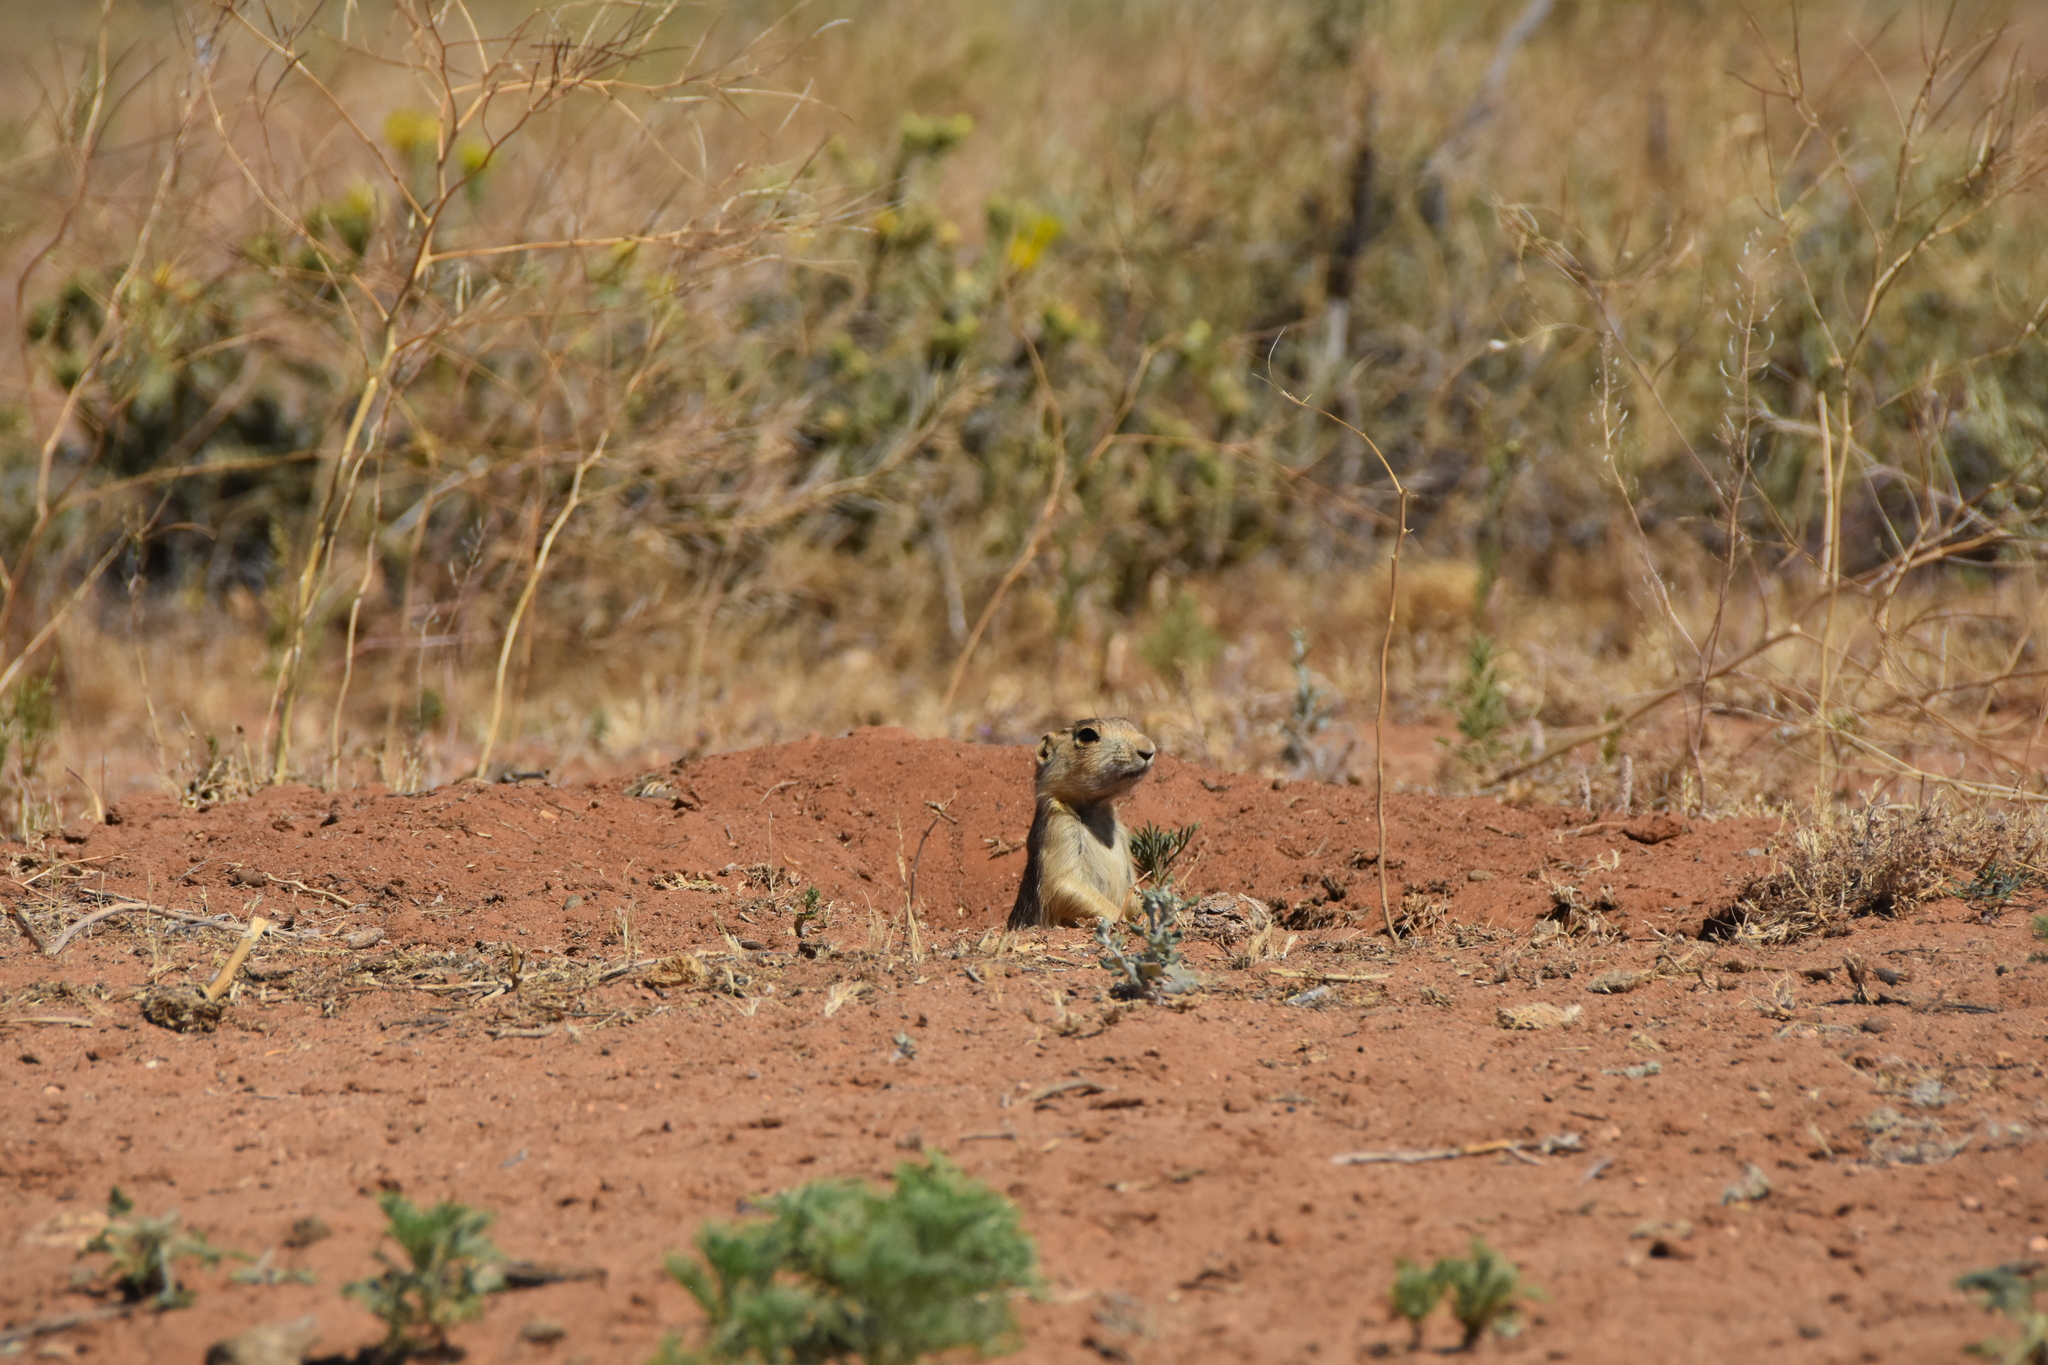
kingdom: Animalia
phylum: Chordata
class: Mammalia
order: Rodentia
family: Sciuridae
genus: Cynomys
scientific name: Cynomys gunnisoni
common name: Gunnison's prairie dog
